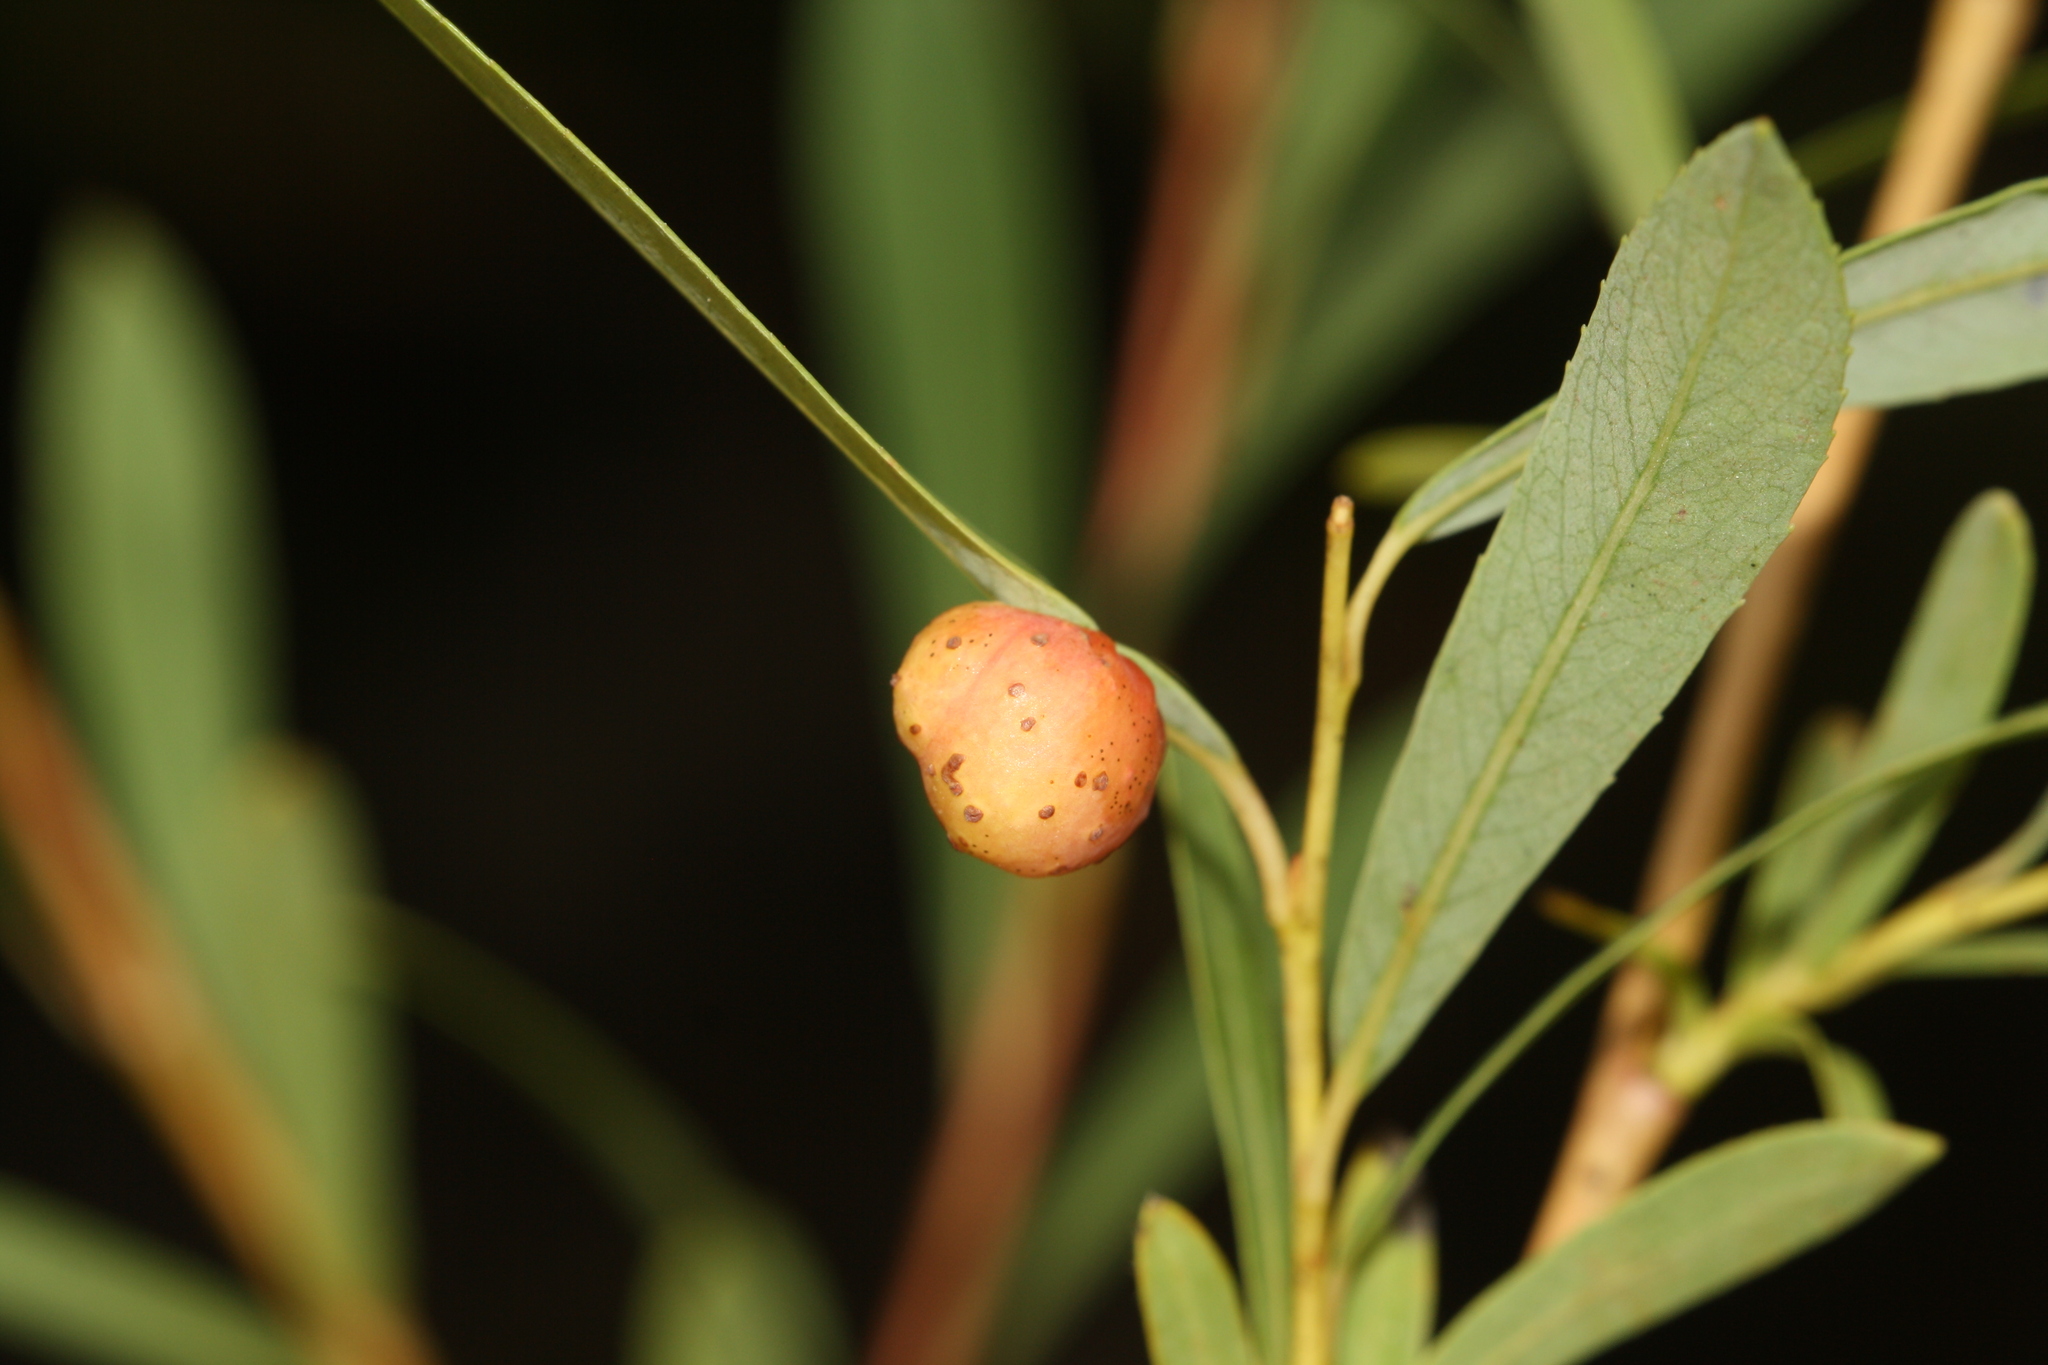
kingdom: Animalia
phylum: Arthropoda
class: Insecta
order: Hymenoptera
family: Tenthredinidae
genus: Euura
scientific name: Euura viminalis
